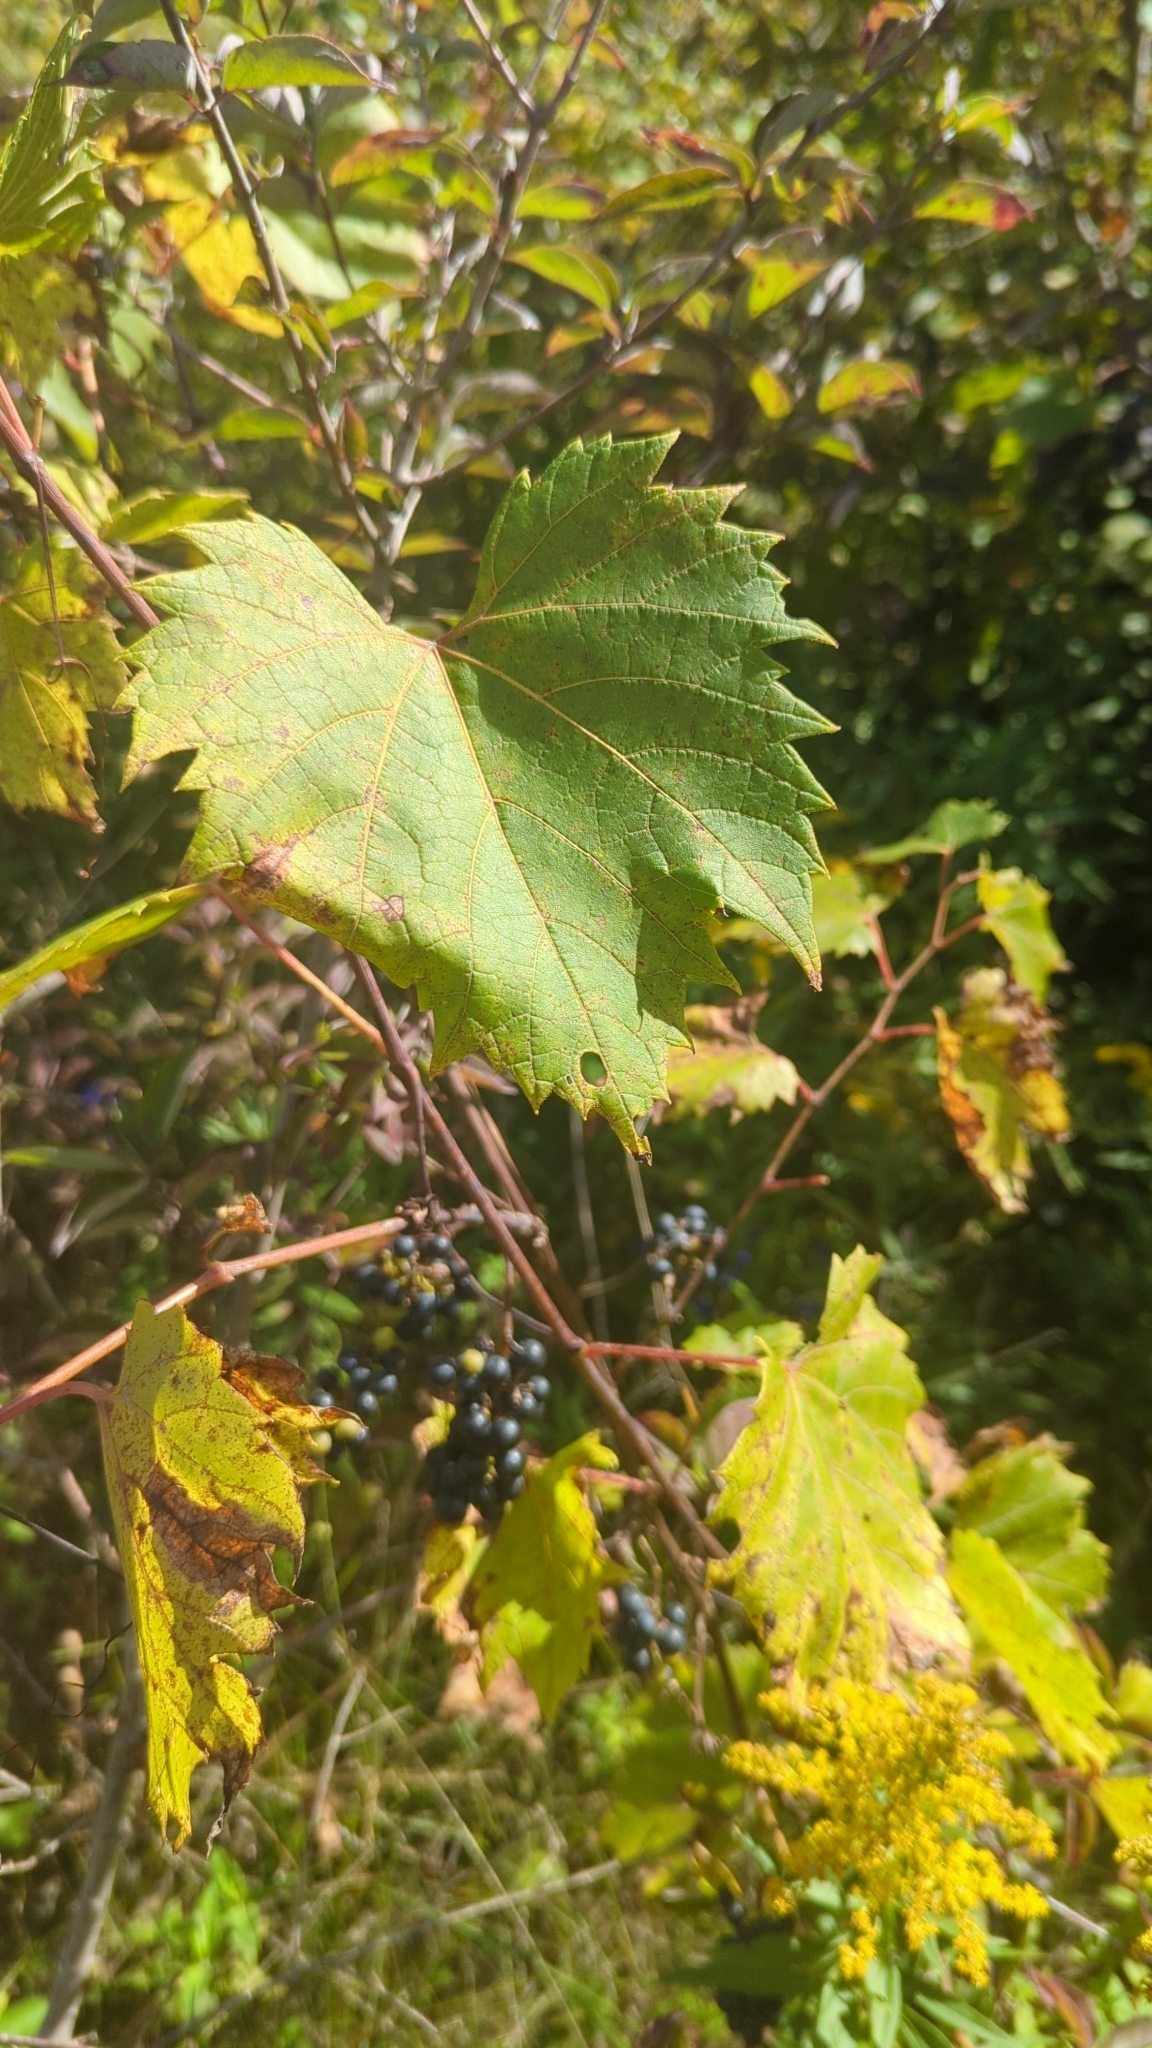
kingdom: Plantae
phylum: Tracheophyta
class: Magnoliopsida
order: Vitales
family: Vitaceae
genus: Vitis
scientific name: Vitis riparia
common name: Frost grape
